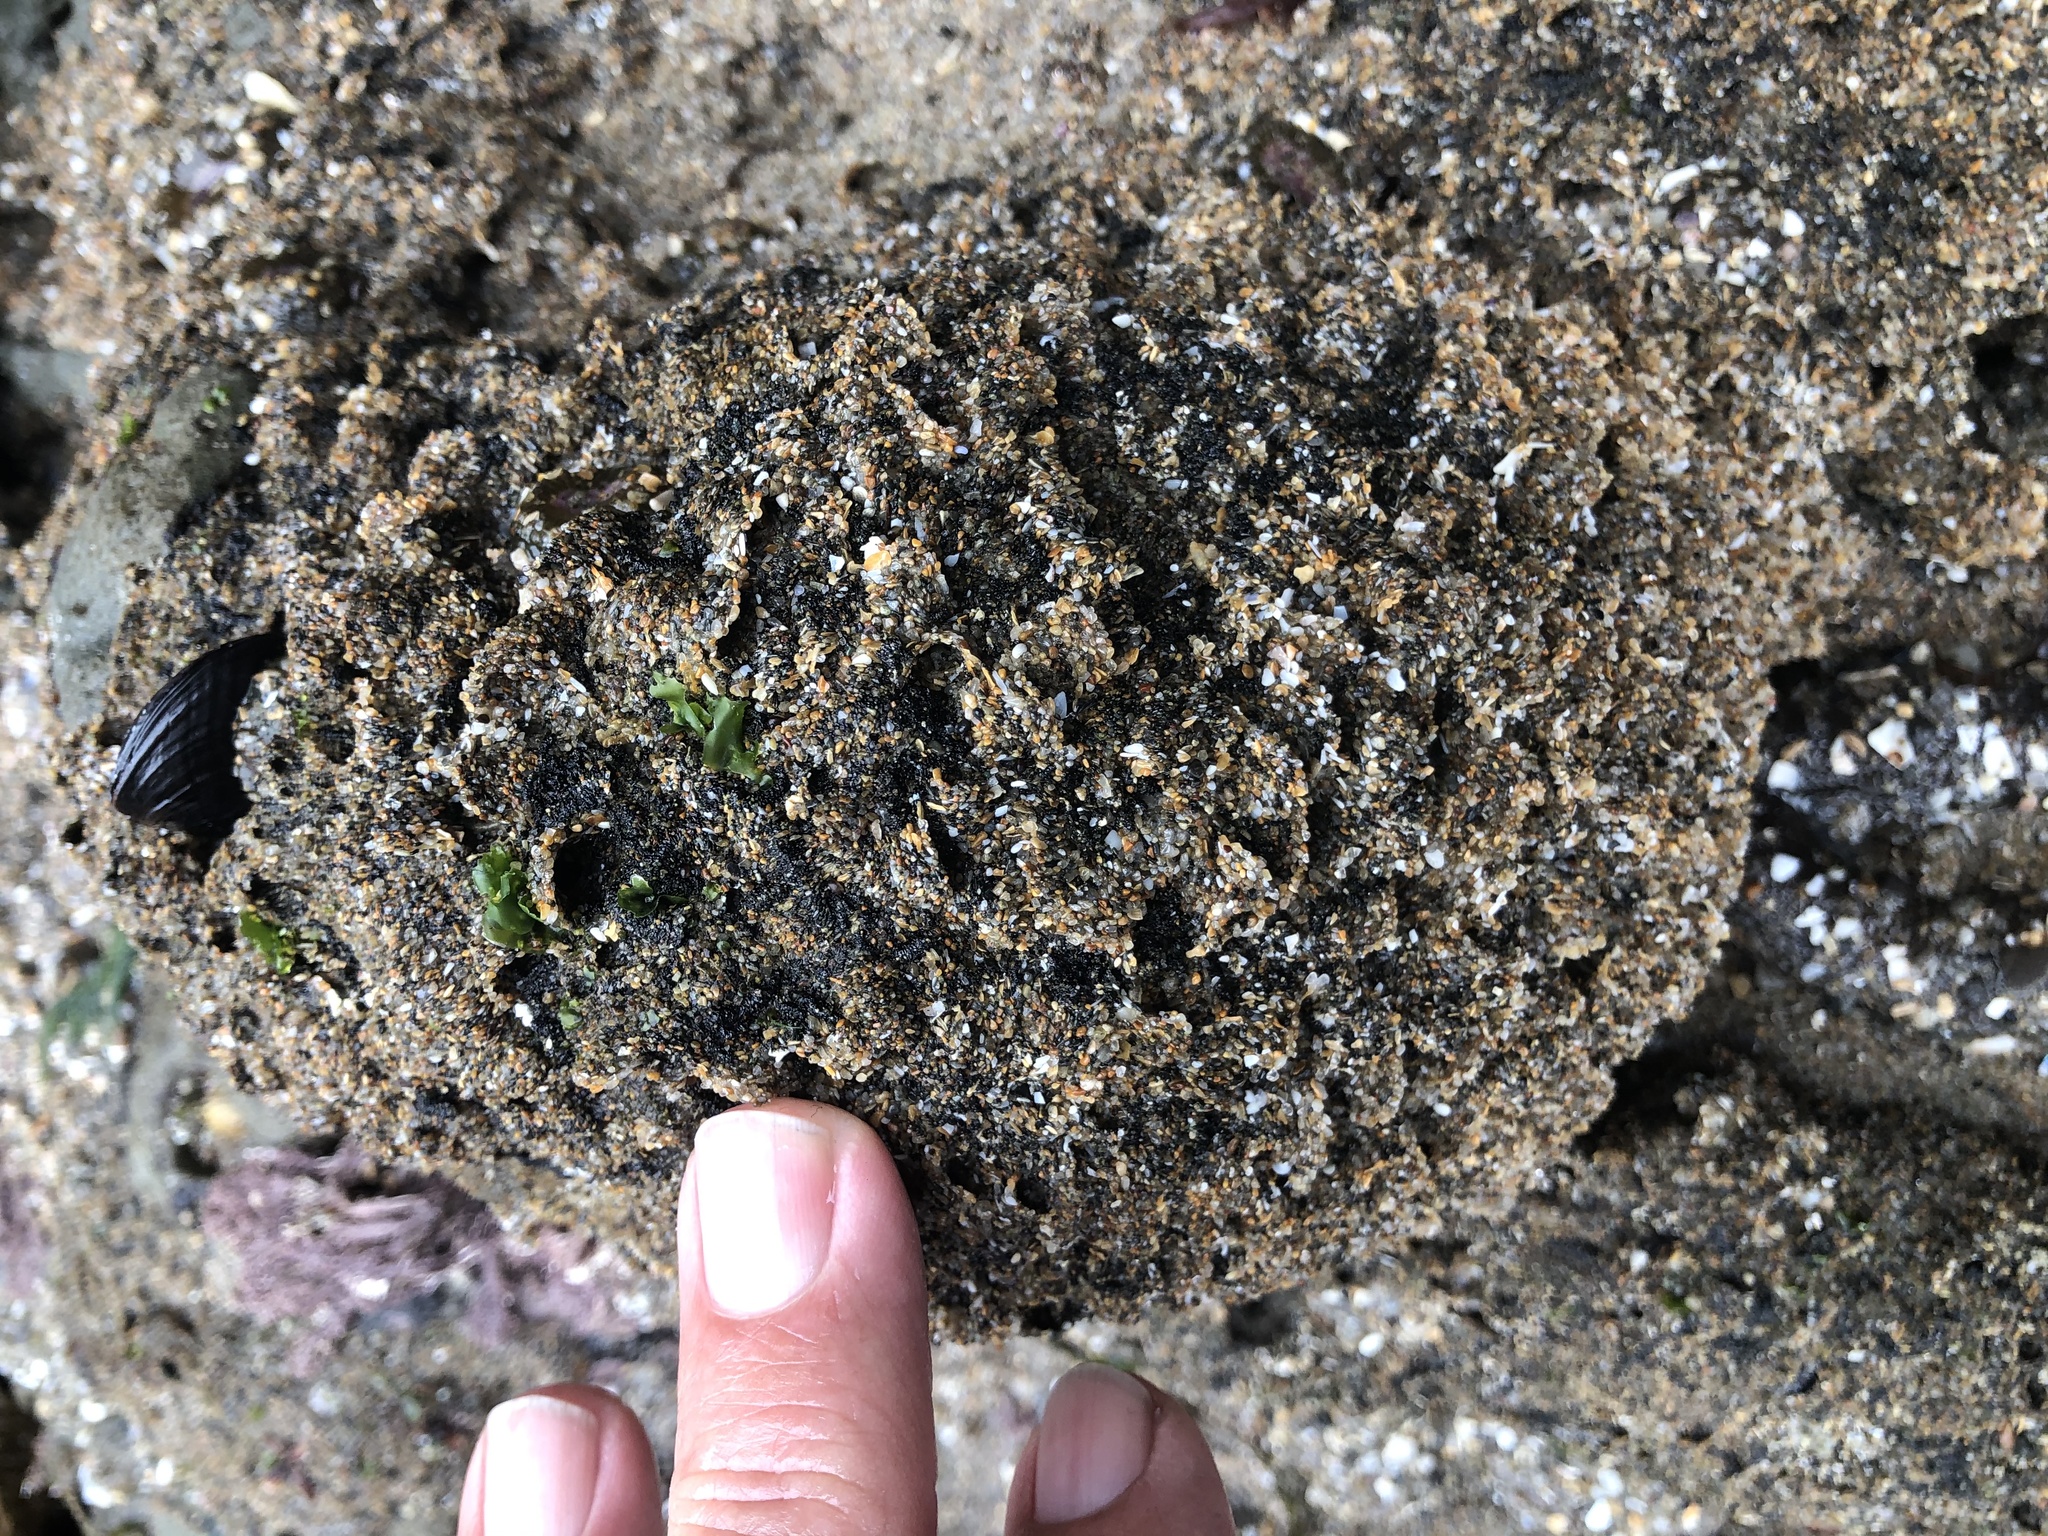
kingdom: Animalia
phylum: Annelida
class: Polychaeta
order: Sabellida
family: Sabellariidae
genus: Phragmatopoma
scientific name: Phragmatopoma californica
